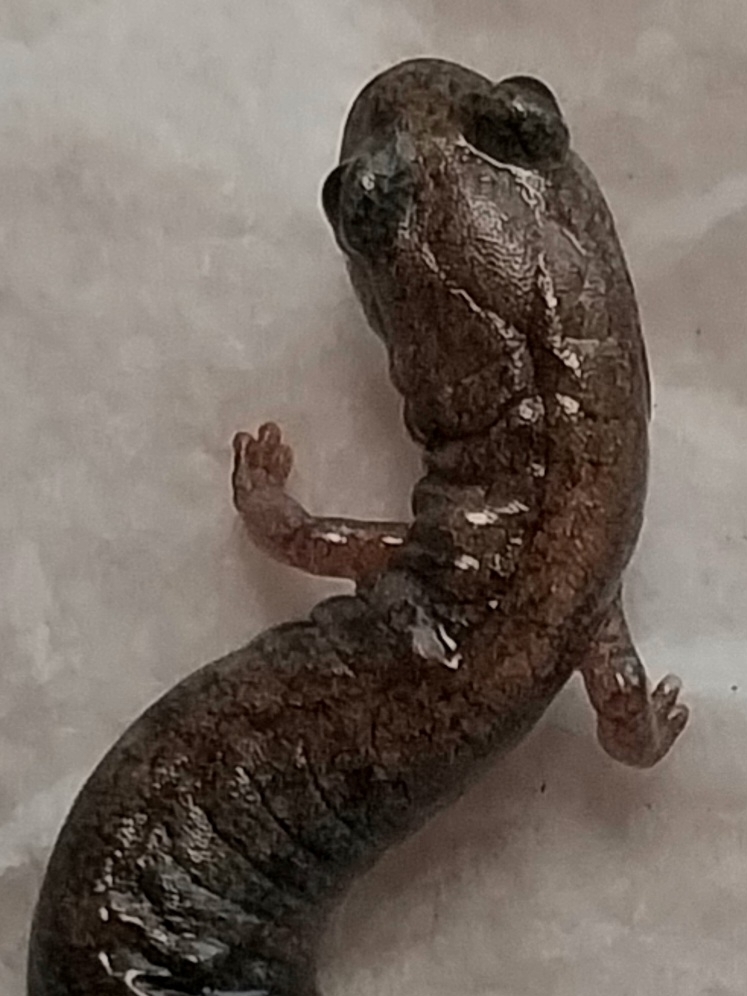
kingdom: Animalia
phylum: Chordata
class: Amphibia
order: Caudata
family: Plethodontidae
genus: Batrachoseps
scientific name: Batrachoseps major
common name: Garden slender salamander
